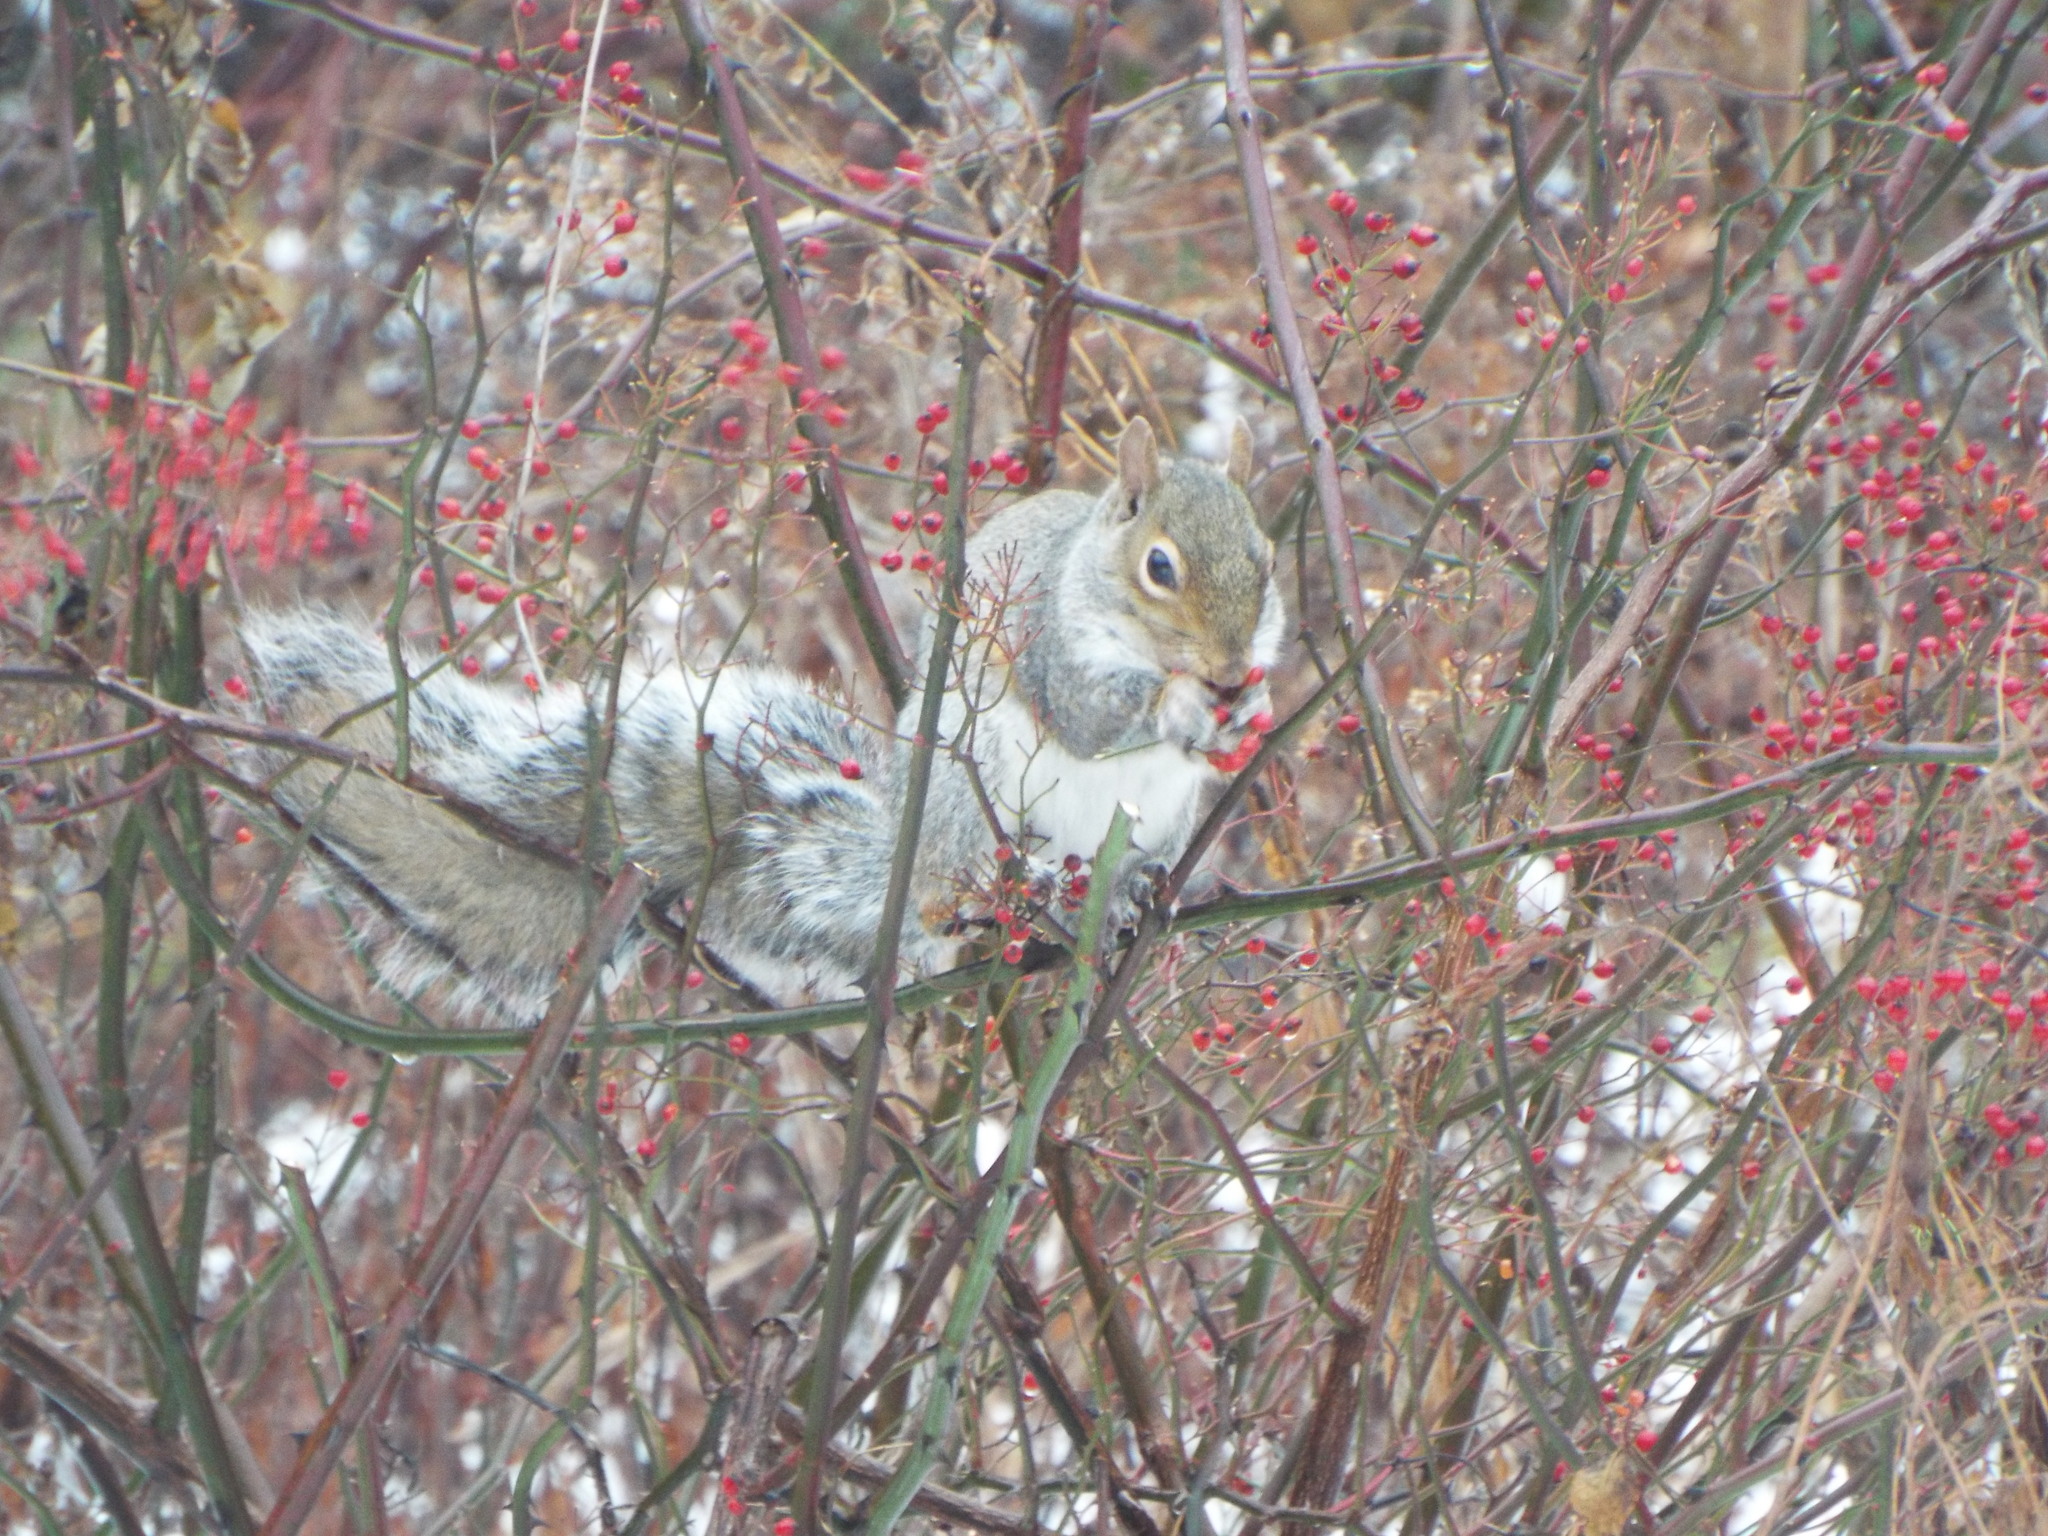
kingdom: Animalia
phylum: Chordata
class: Mammalia
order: Rodentia
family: Sciuridae
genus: Sciurus
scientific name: Sciurus carolinensis
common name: Eastern gray squirrel
